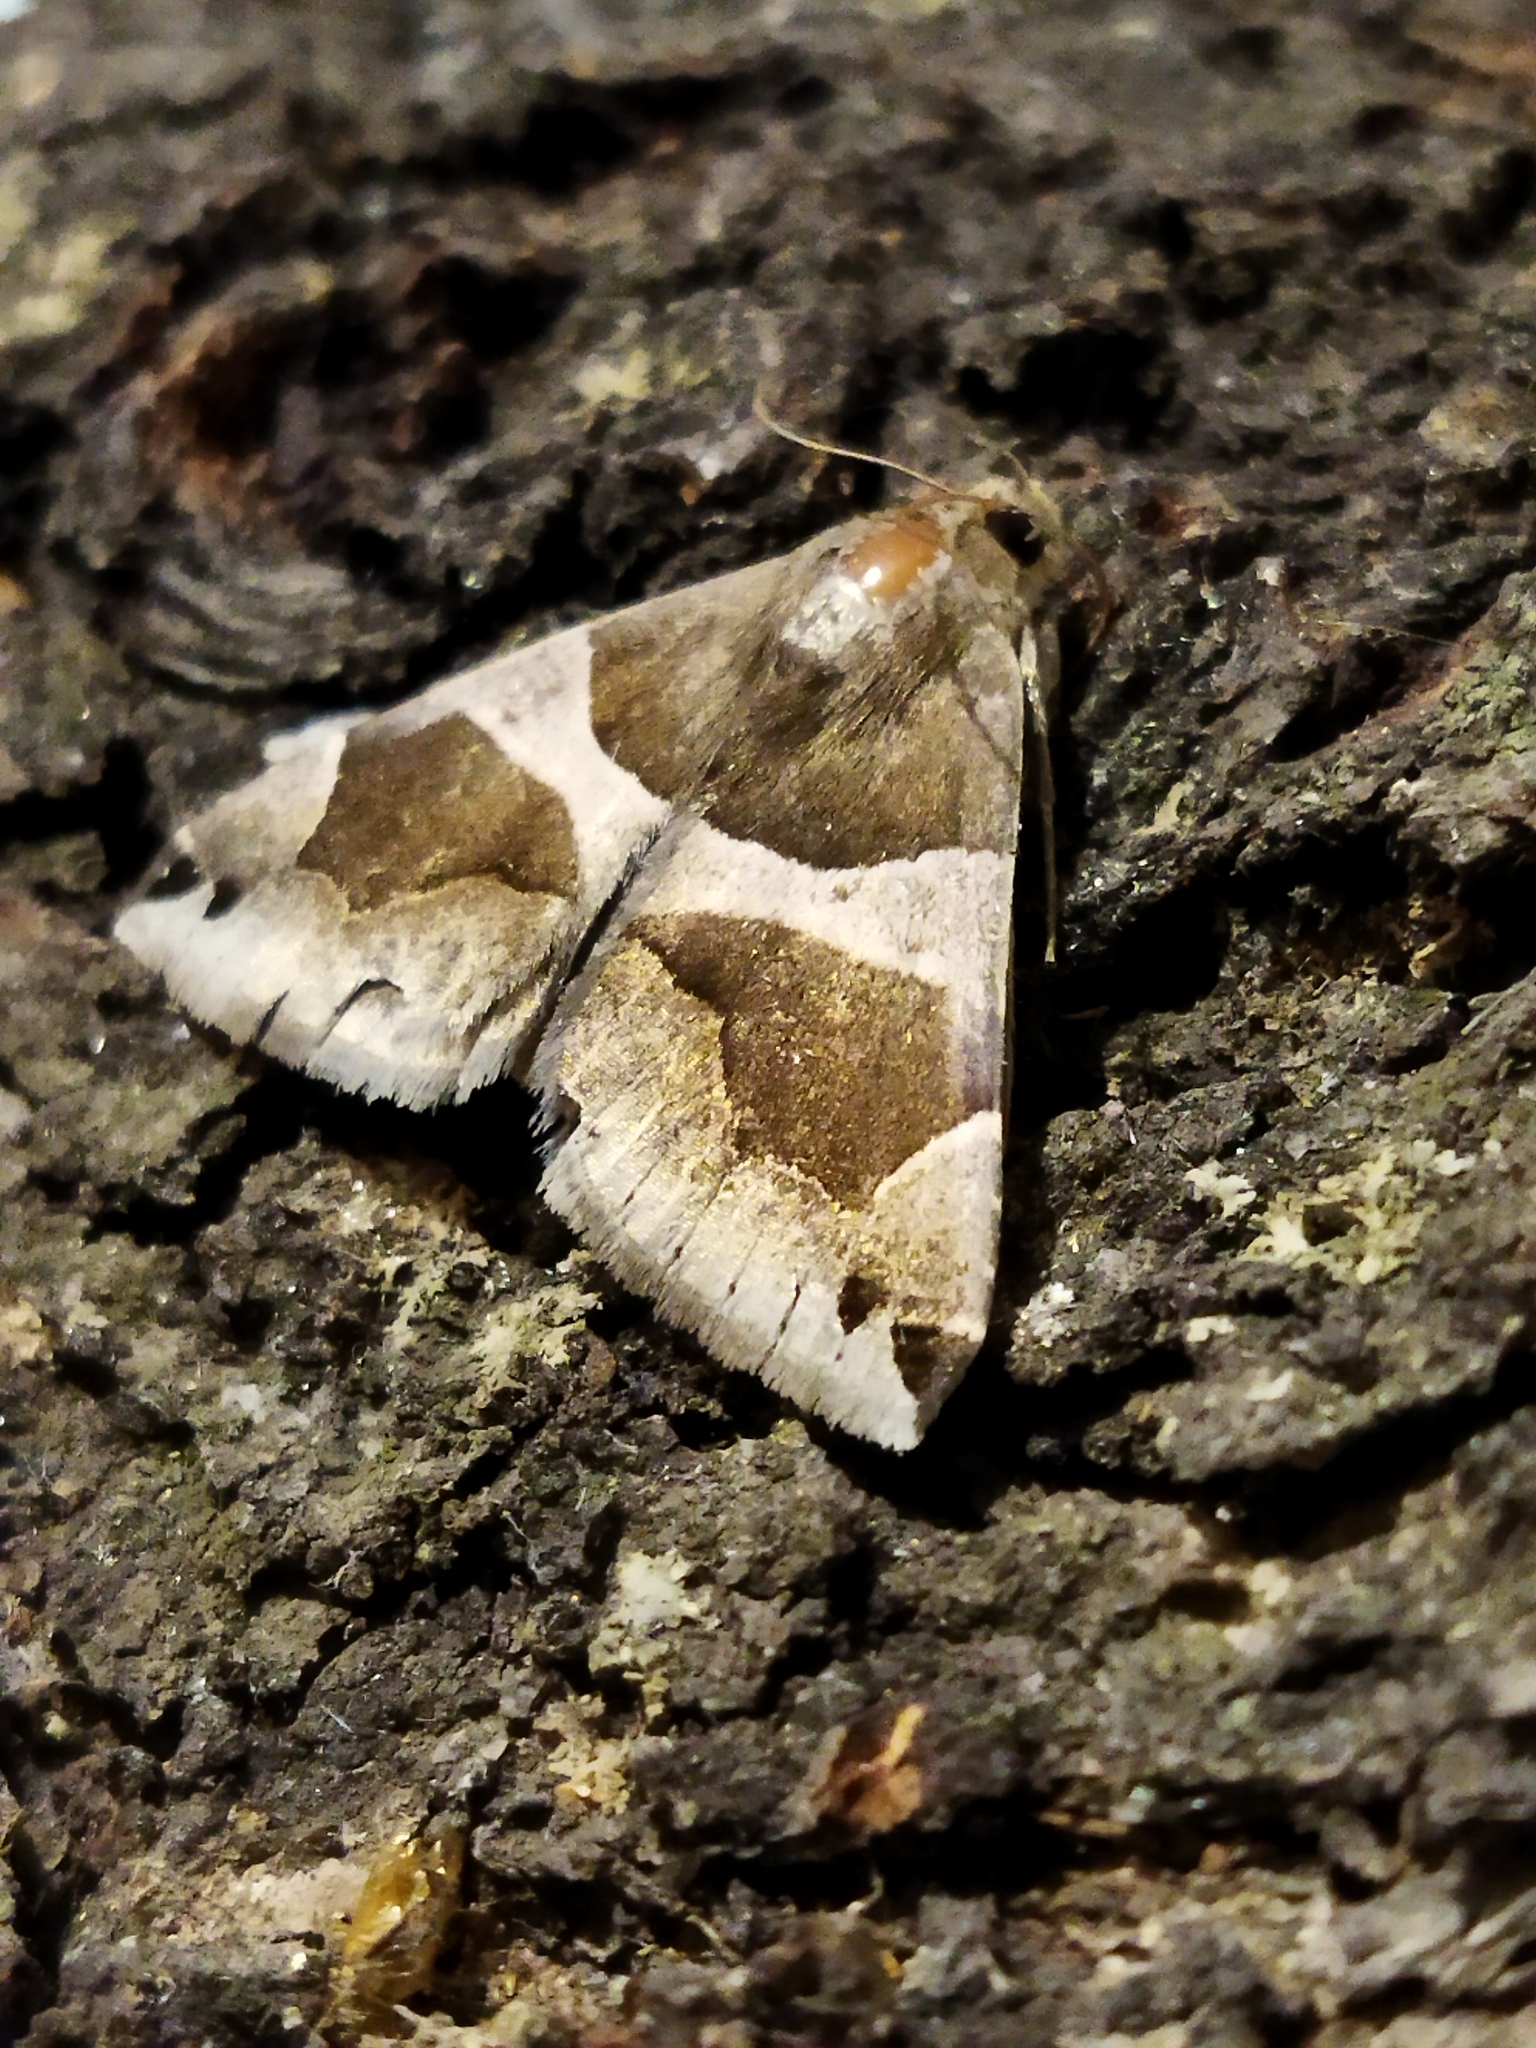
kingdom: Animalia
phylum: Arthropoda
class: Insecta
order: Lepidoptera
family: Erebidae
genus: Dysgonia
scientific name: Dysgonia algira
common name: Passenger
